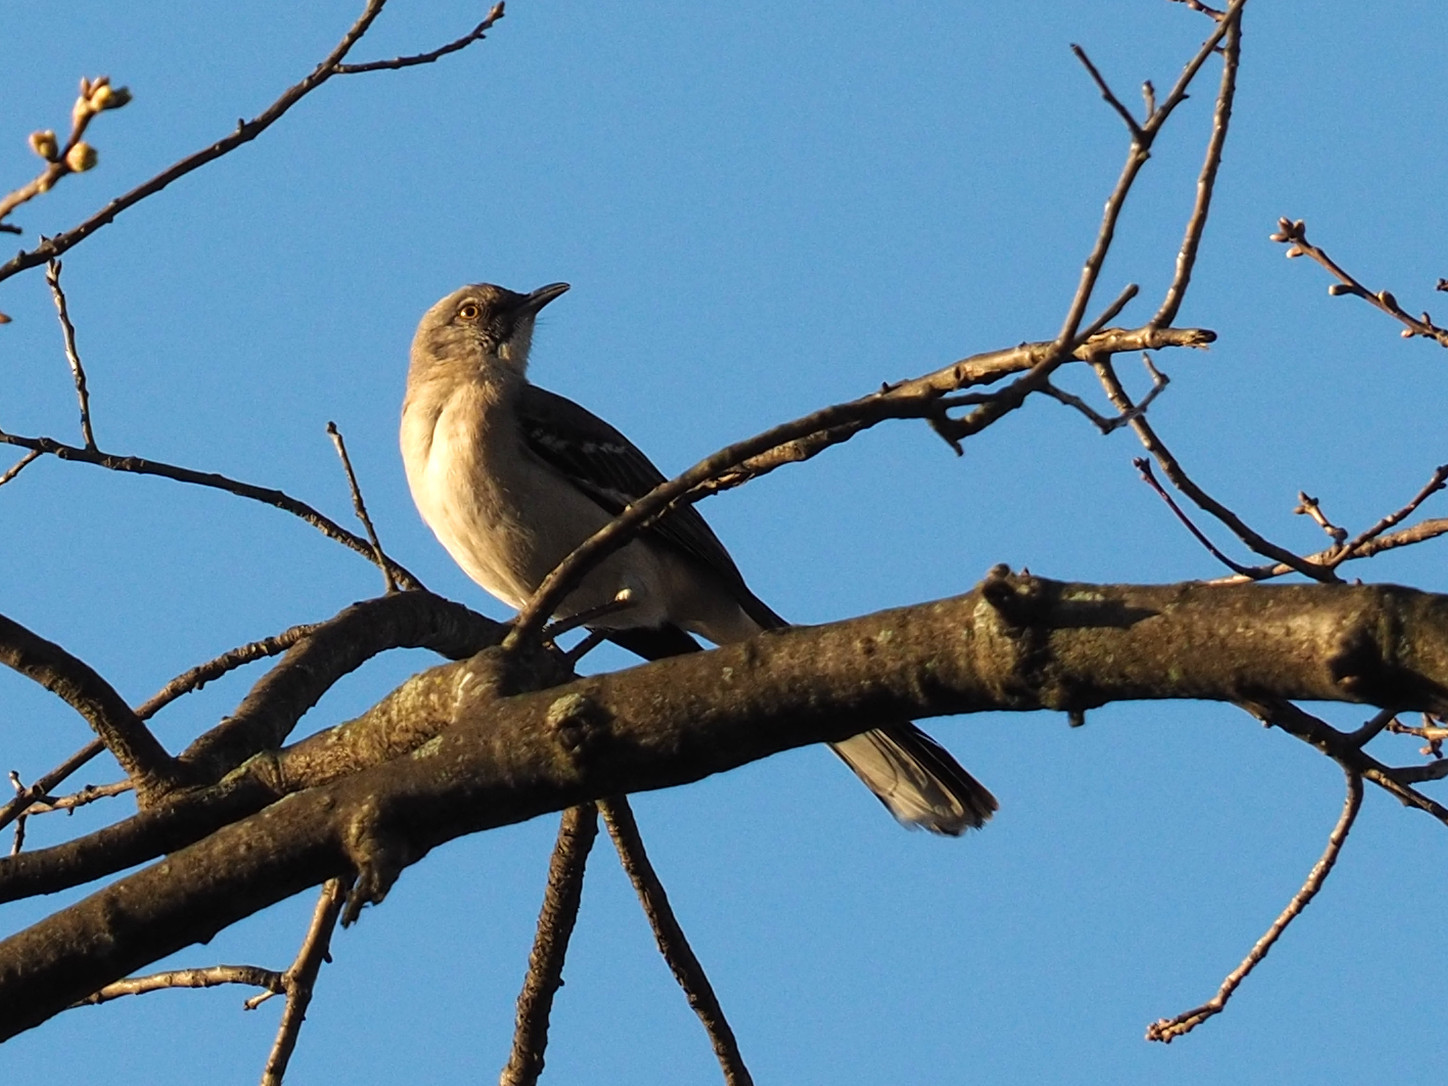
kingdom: Animalia
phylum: Chordata
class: Aves
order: Passeriformes
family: Mimidae
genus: Mimus
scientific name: Mimus polyglottos
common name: Northern mockingbird
